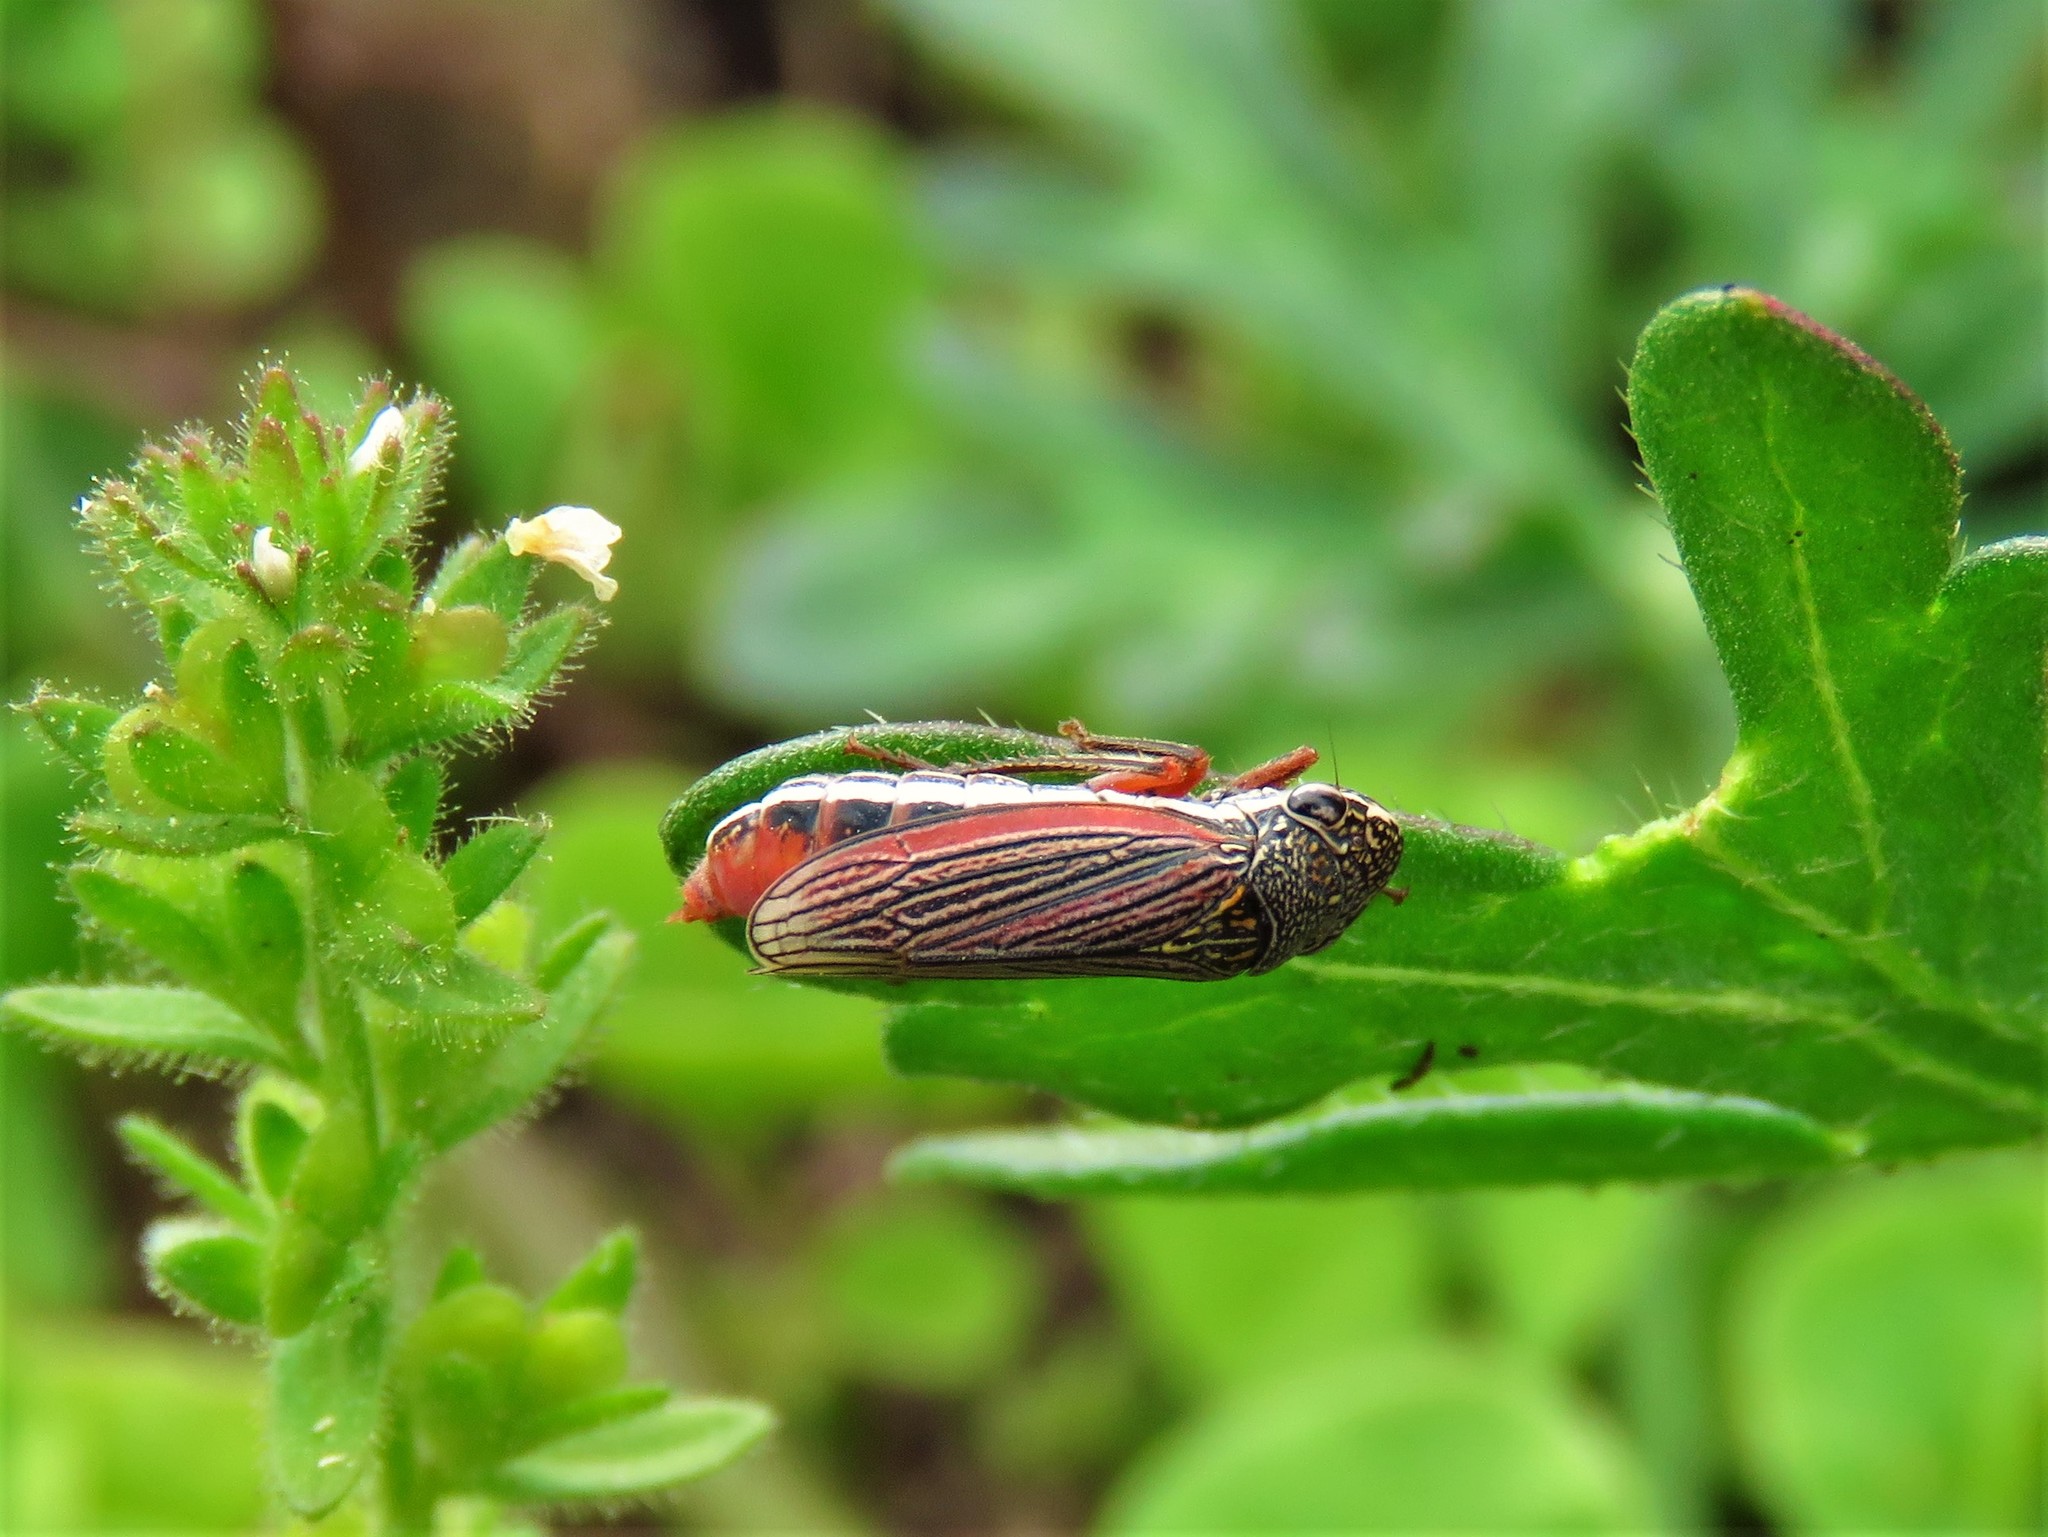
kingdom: Animalia
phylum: Arthropoda
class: Insecta
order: Hemiptera
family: Cicadellidae
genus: Cuerna
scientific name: Cuerna costalis
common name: Lateral-lined sharpshooter
